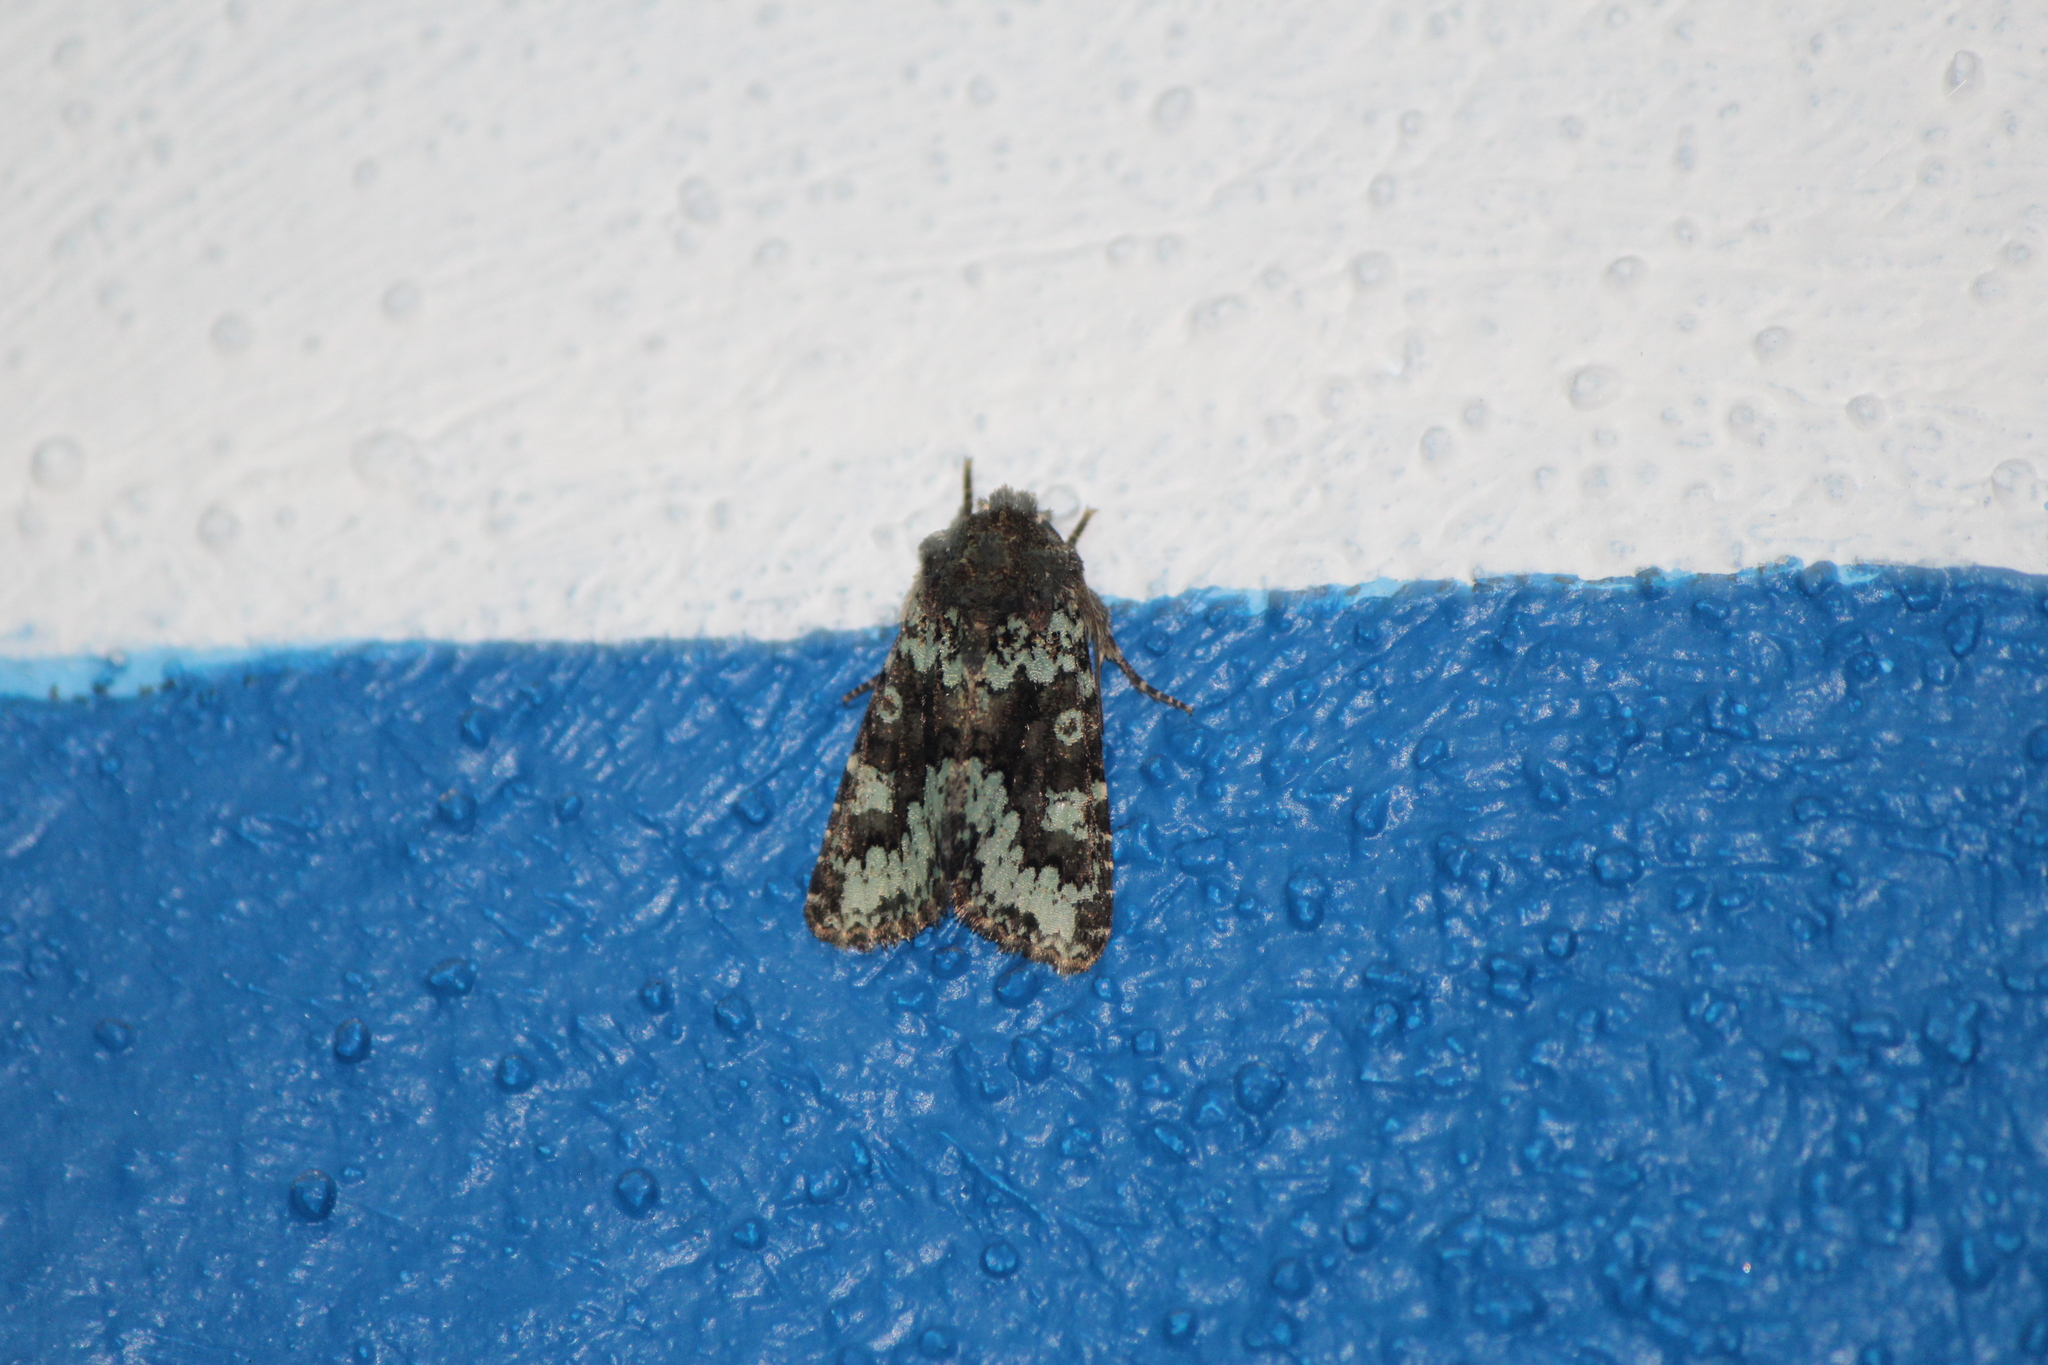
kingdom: Animalia
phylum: Arthropoda
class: Insecta
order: Lepidoptera
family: Noctuidae
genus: Paramiana
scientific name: Paramiana perissa
